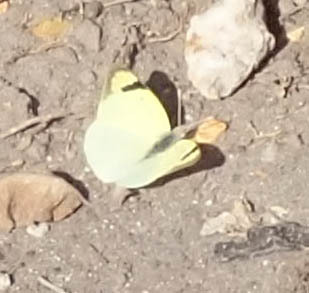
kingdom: Animalia
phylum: Arthropoda
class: Insecta
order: Lepidoptera
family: Pieridae
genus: Colotis
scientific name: Colotis subfasciatus
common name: Lemon traveller tip
